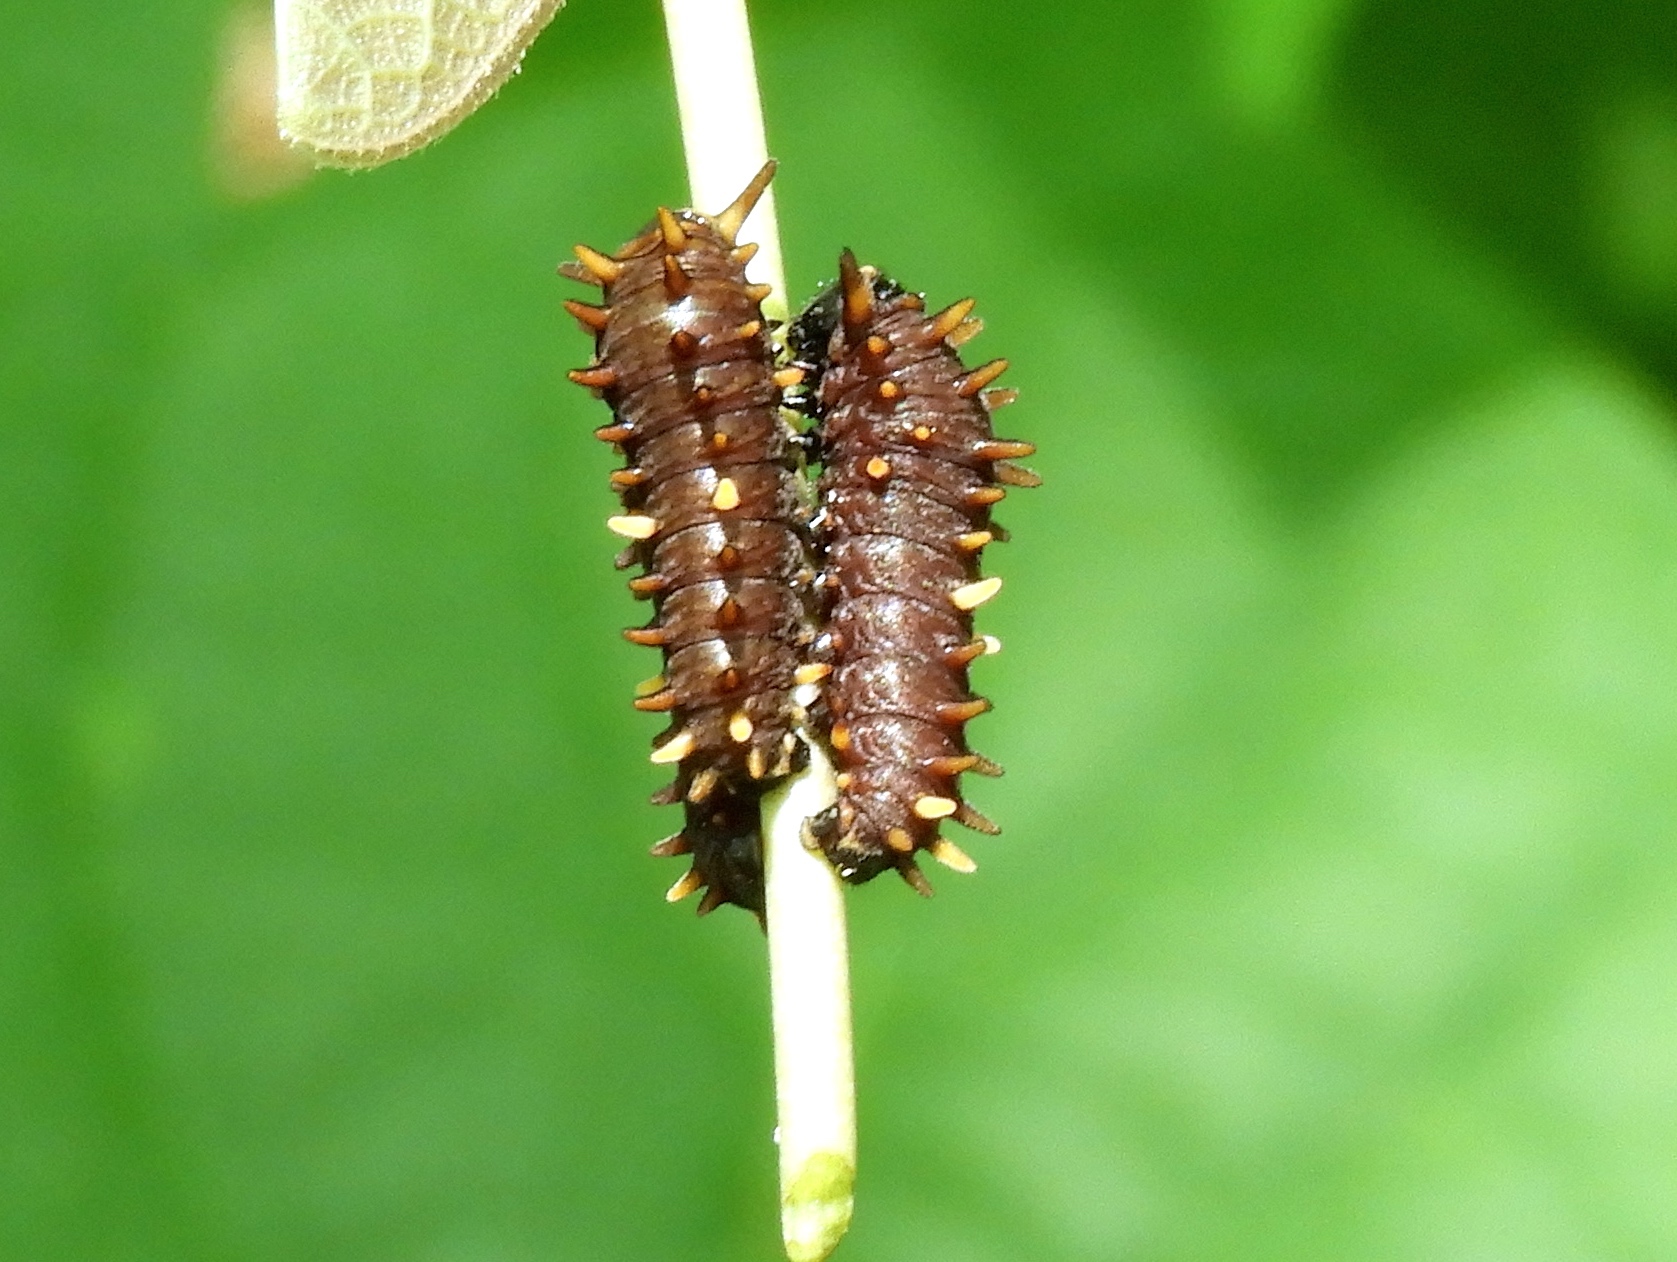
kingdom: Animalia
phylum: Arthropoda
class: Insecta
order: Lepidoptera
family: Papilionidae
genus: Battus
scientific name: Battus
